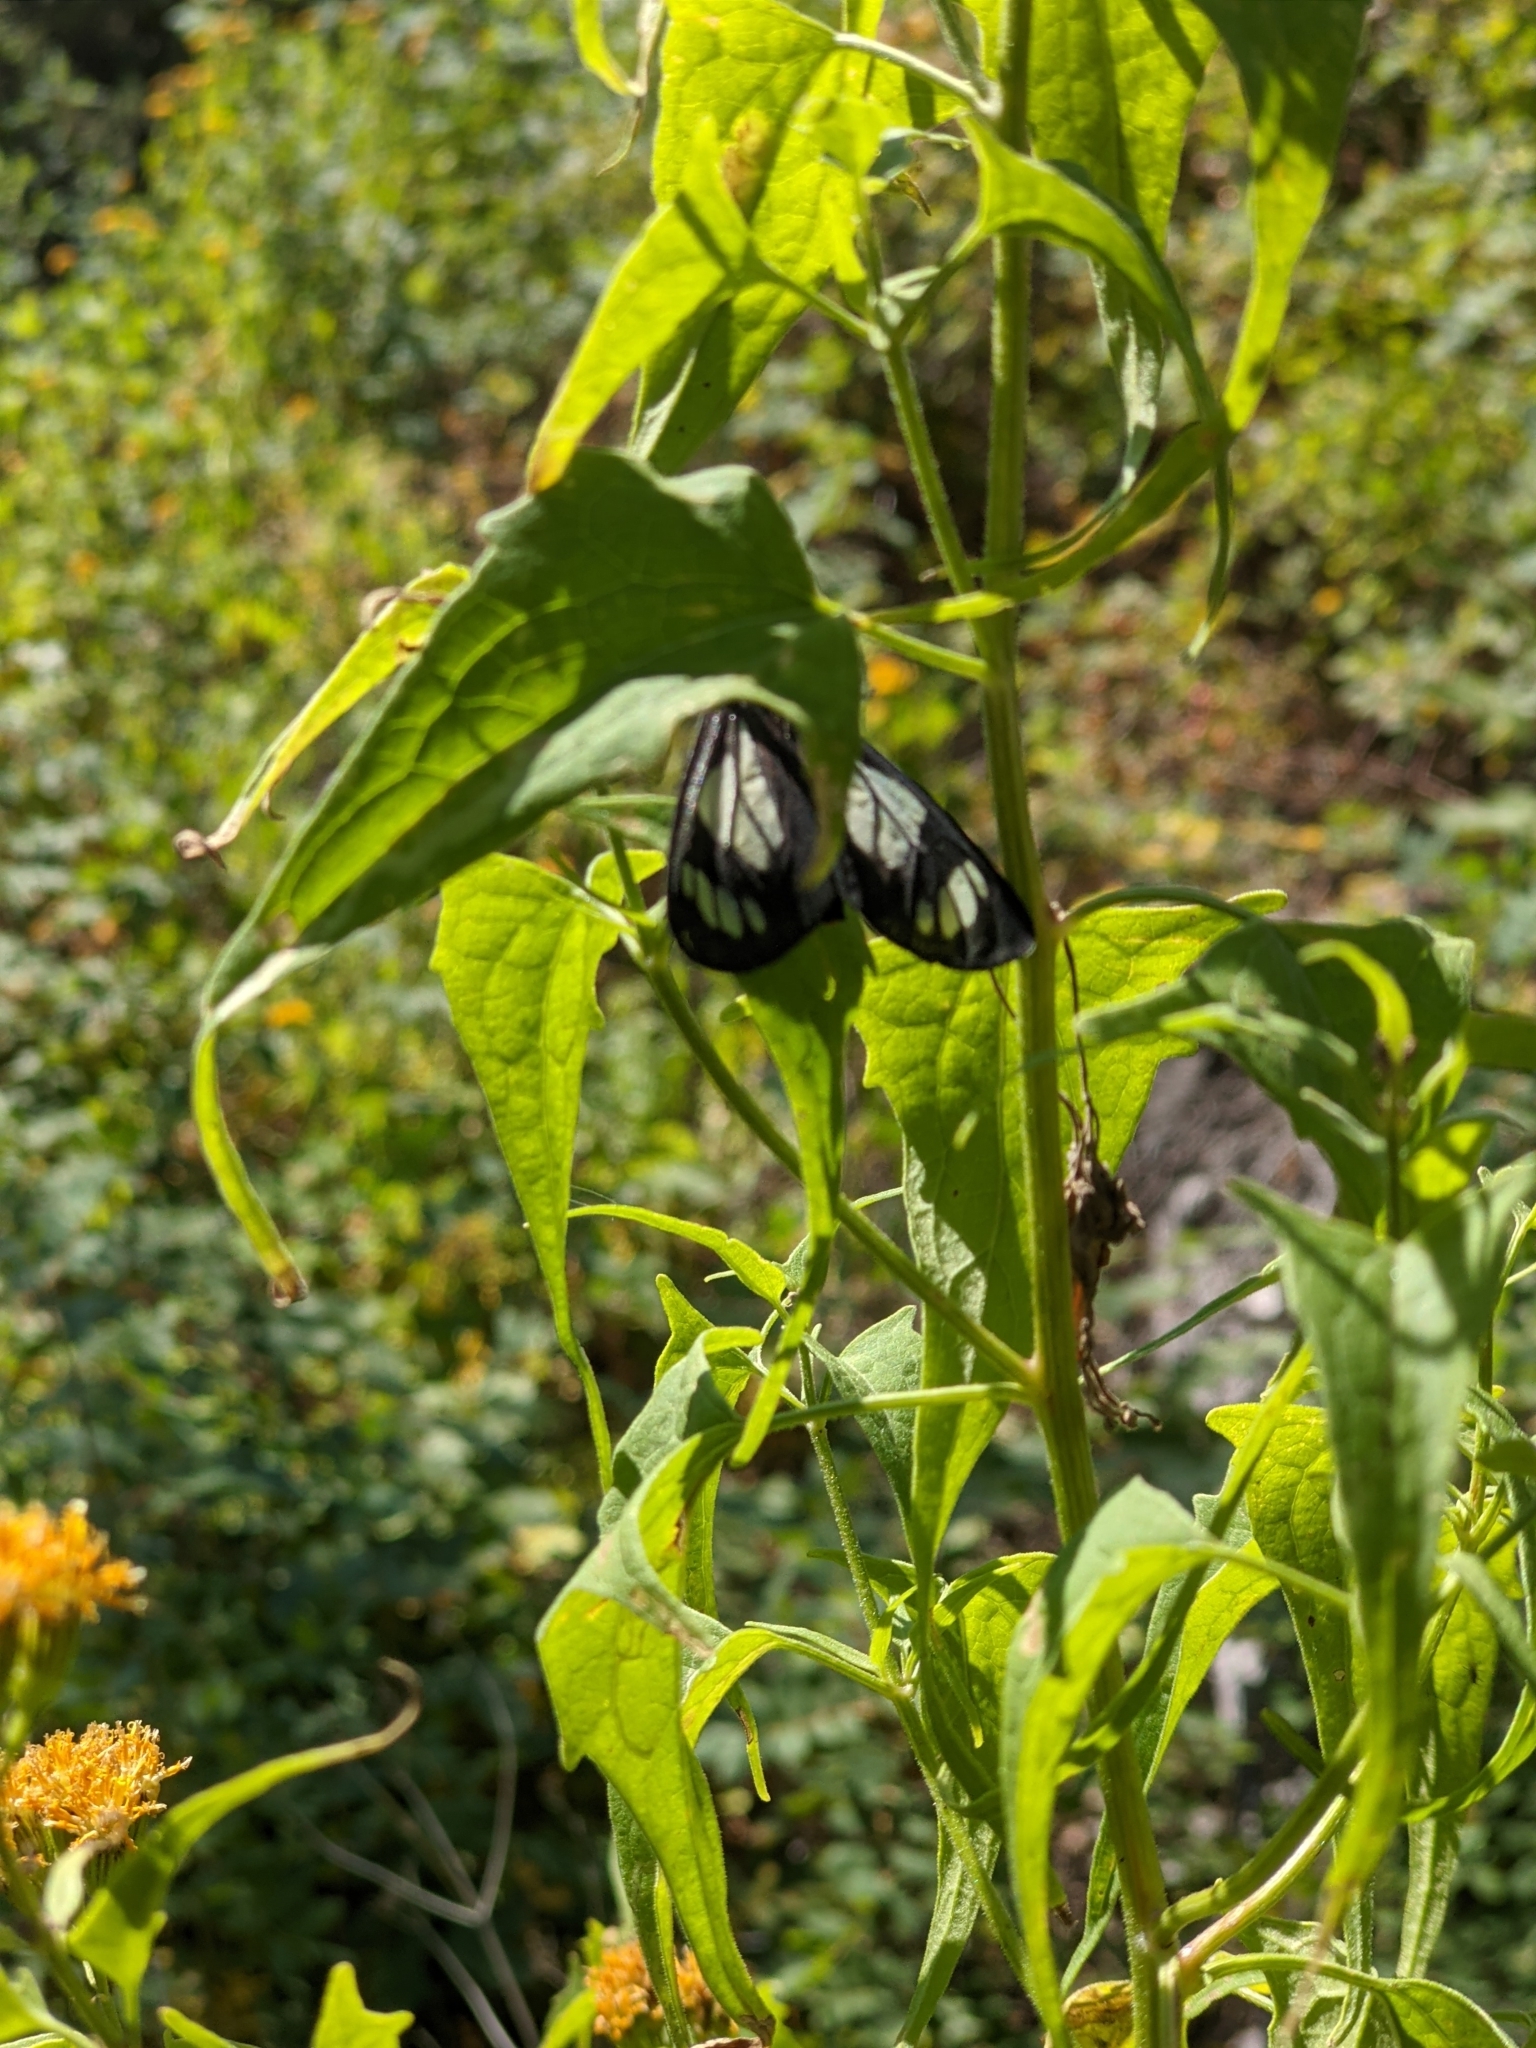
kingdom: Animalia
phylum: Arthropoda
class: Insecta
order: Lepidoptera
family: Erebidae
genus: Gnophaela
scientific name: Gnophaela vermiculata
